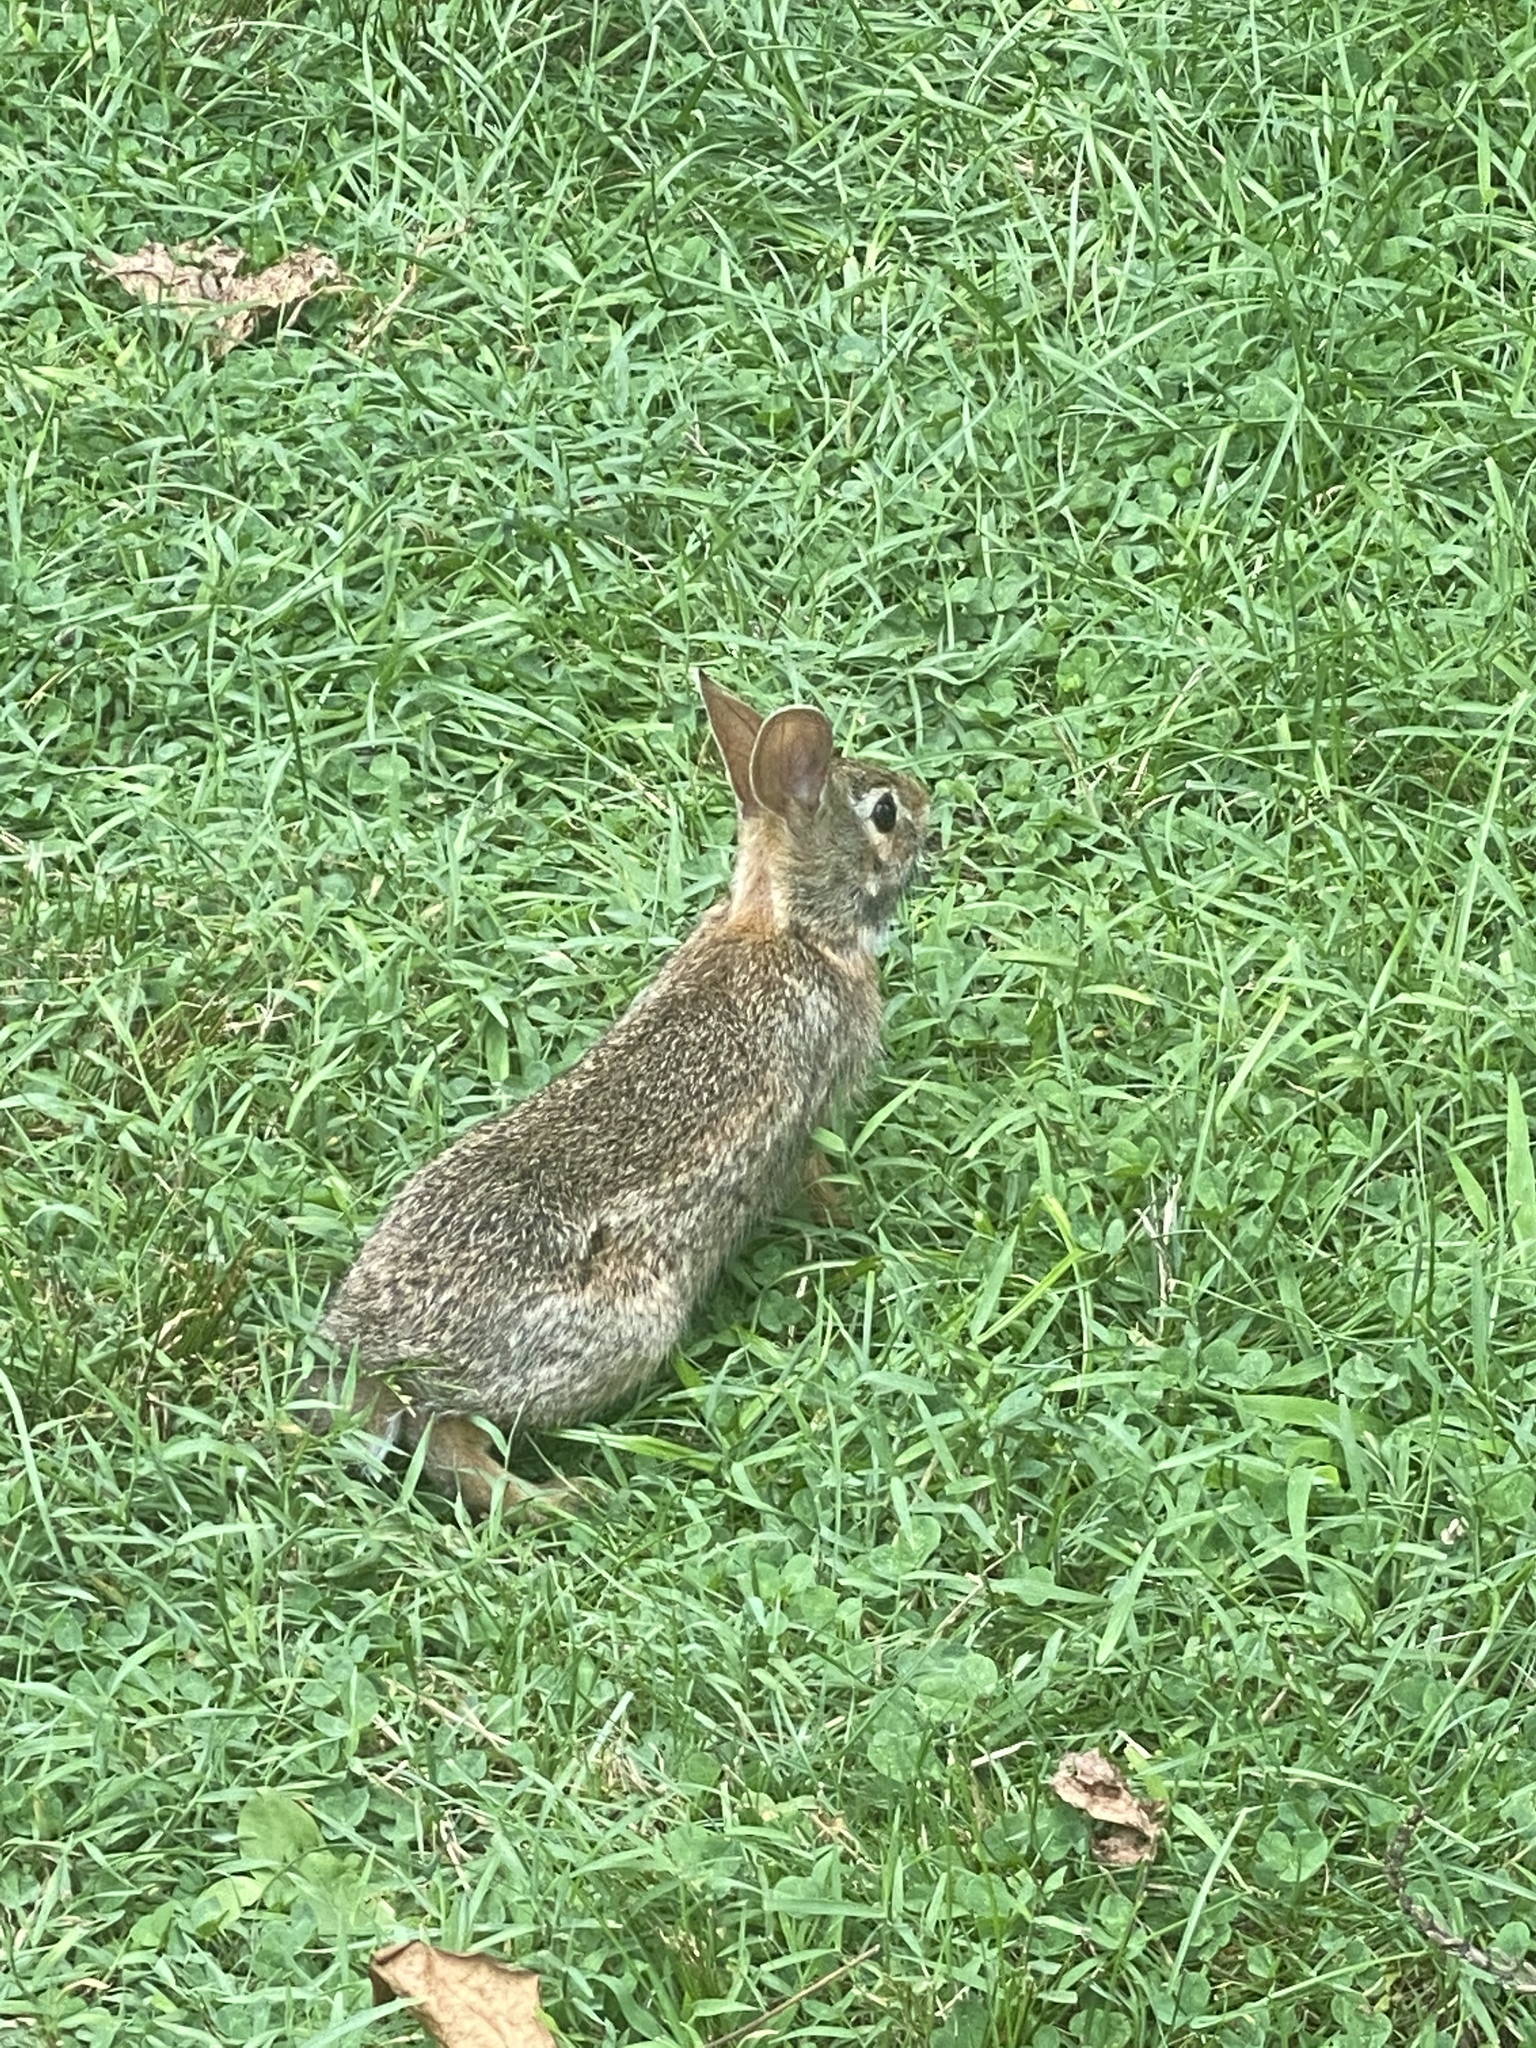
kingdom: Animalia
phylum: Chordata
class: Mammalia
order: Lagomorpha
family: Leporidae
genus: Sylvilagus
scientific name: Sylvilagus floridanus
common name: Eastern cottontail
